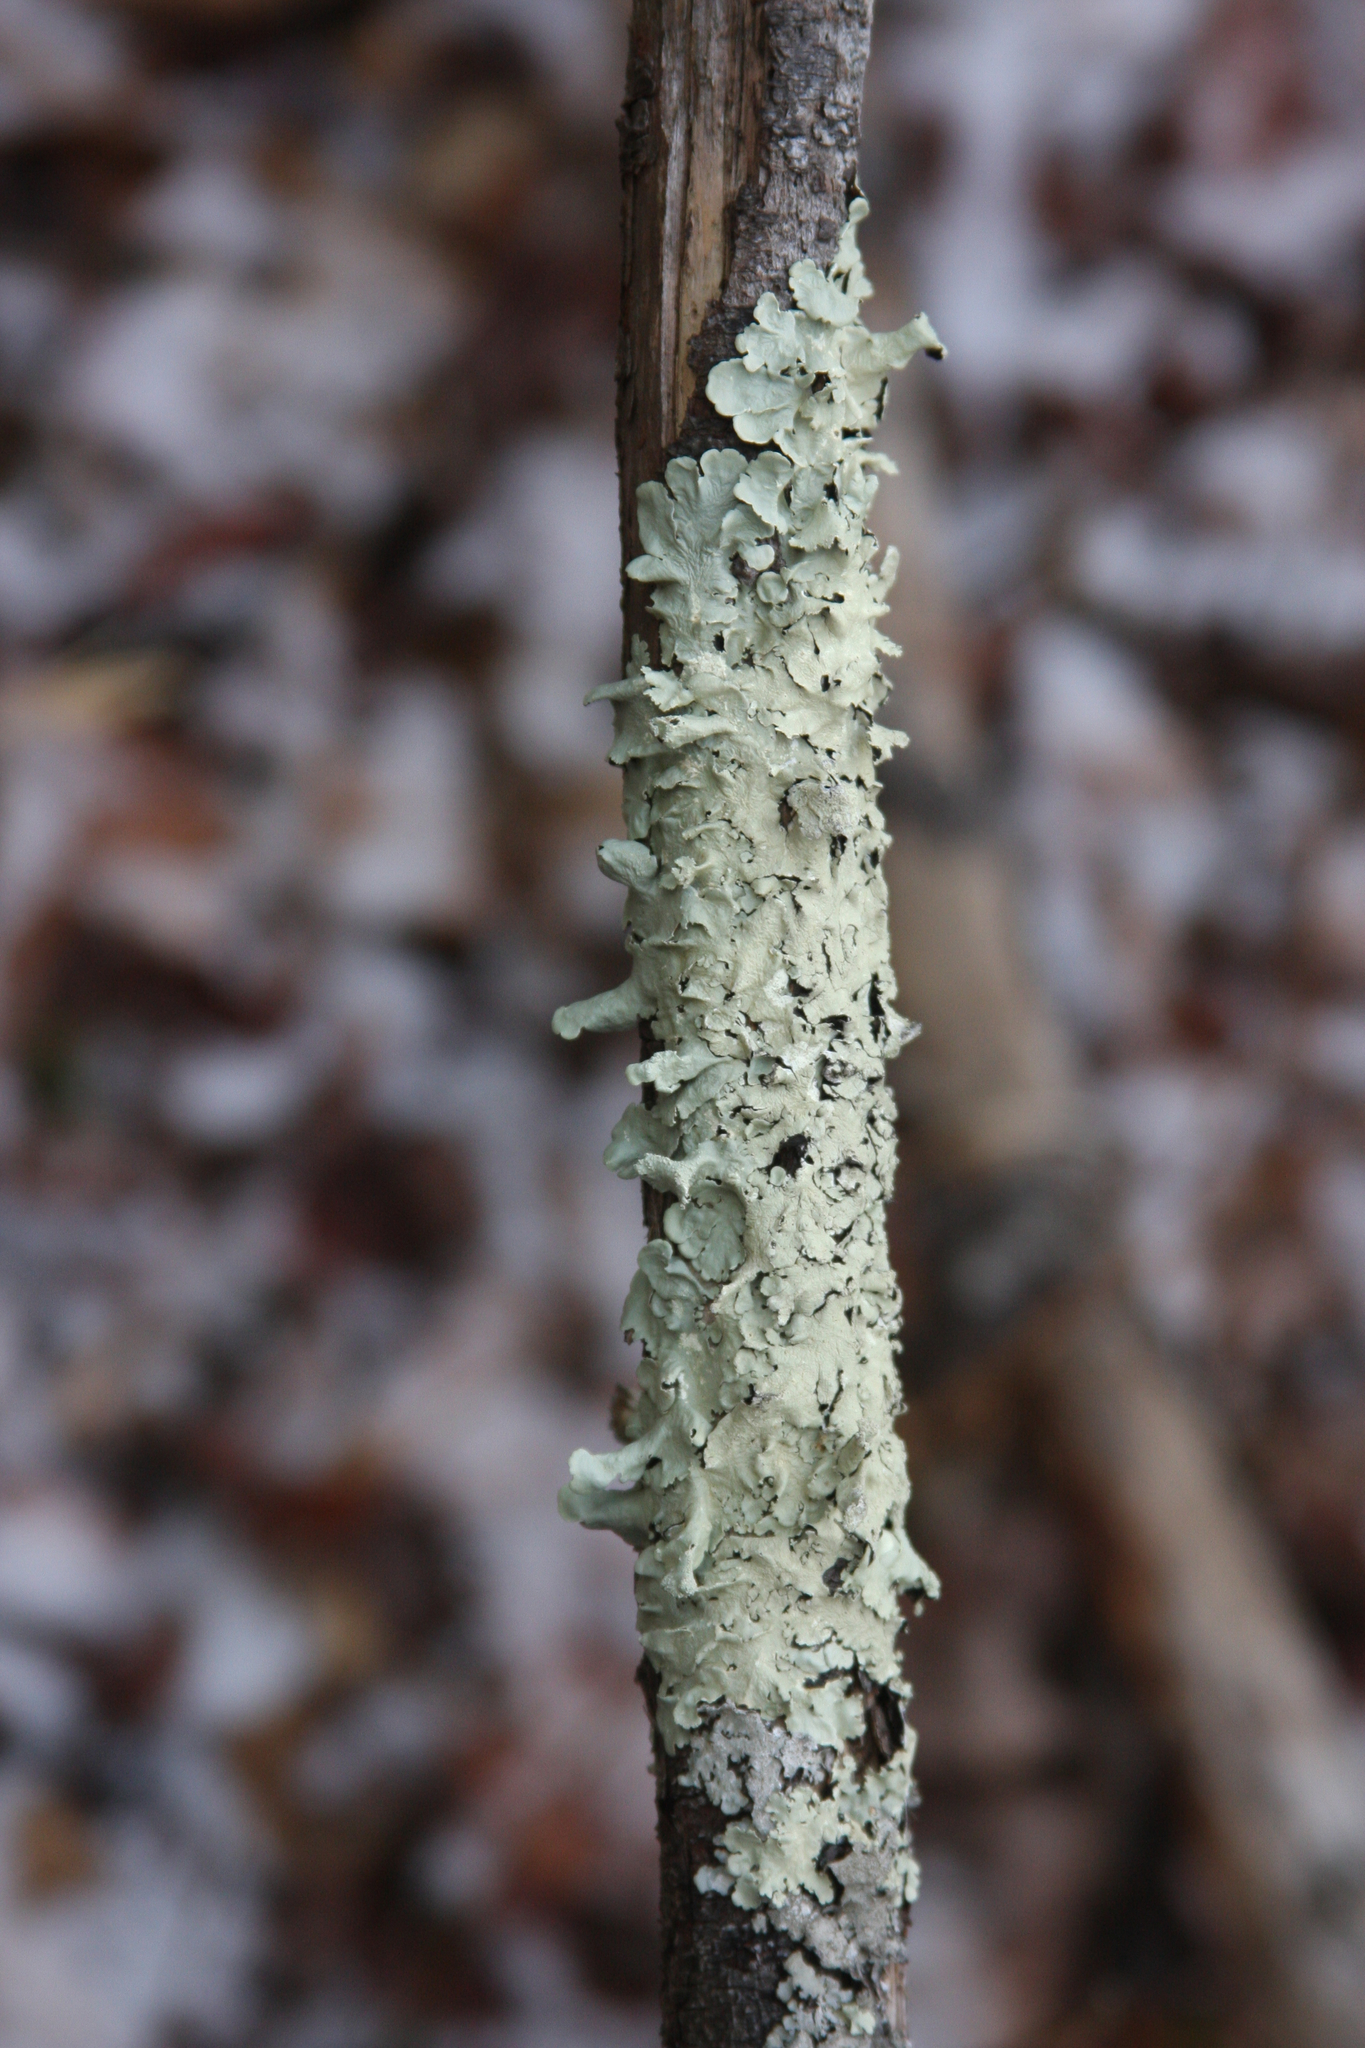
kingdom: Fungi
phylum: Ascomycota
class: Lecanoromycetes
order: Lecanorales
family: Parmeliaceae
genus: Flavoparmelia
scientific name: Flavoparmelia caperata
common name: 40-mile per hour lichen
